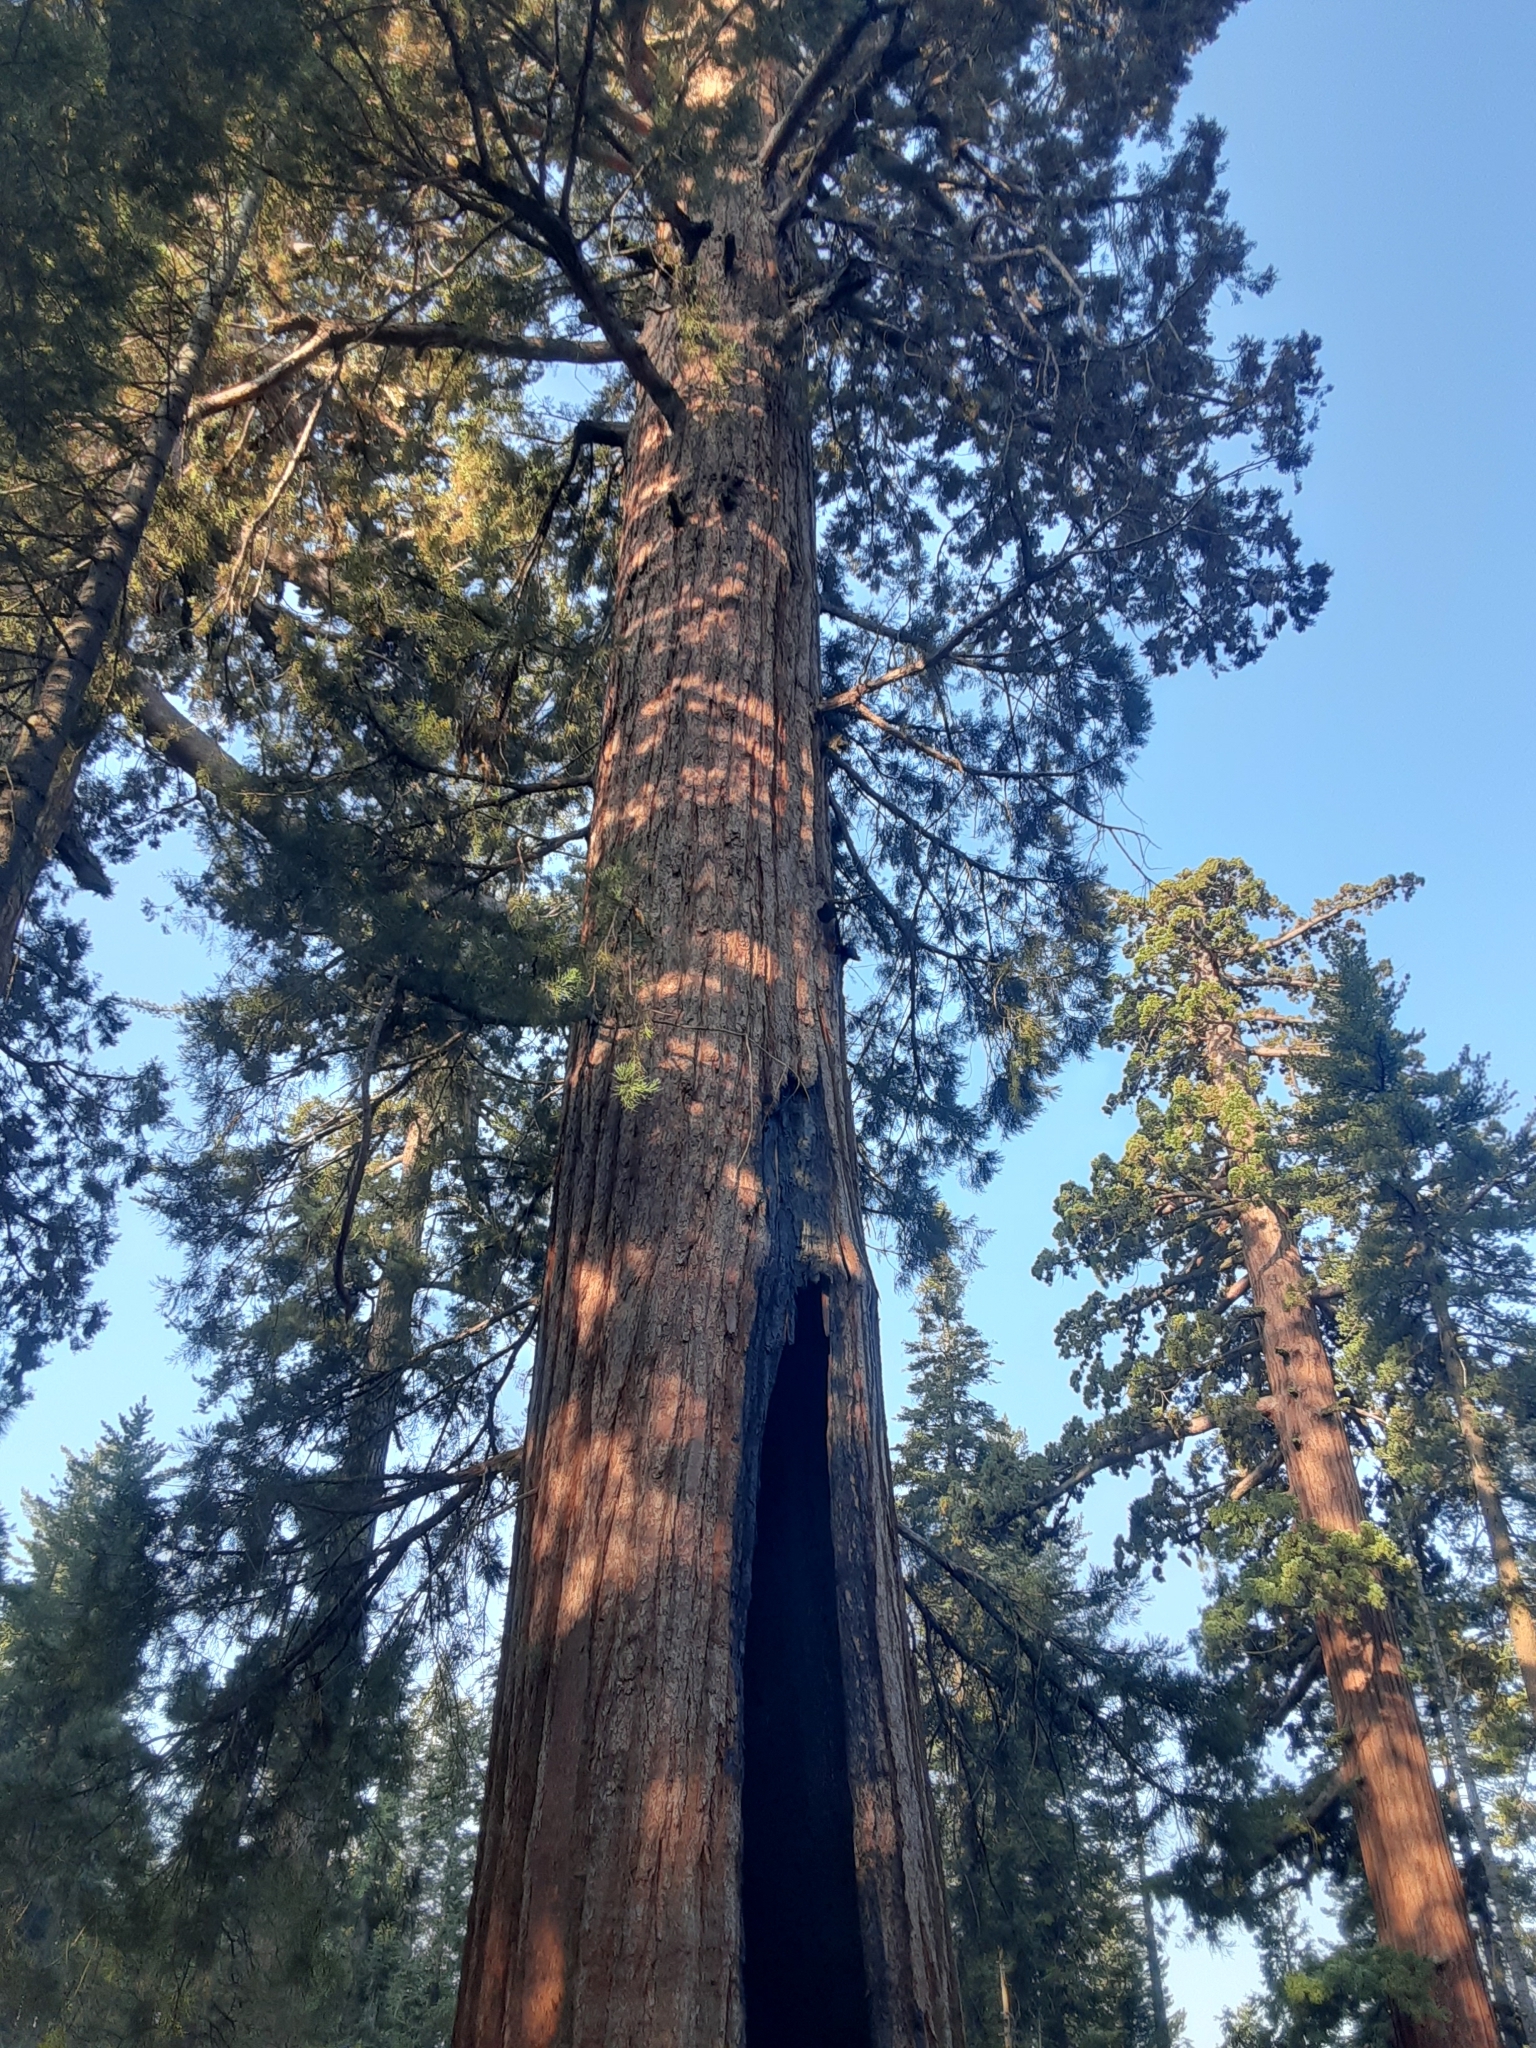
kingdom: Plantae
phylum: Tracheophyta
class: Pinopsida
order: Pinales
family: Cupressaceae
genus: Sequoiadendron
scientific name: Sequoiadendron giganteum
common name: Wellingtonia
